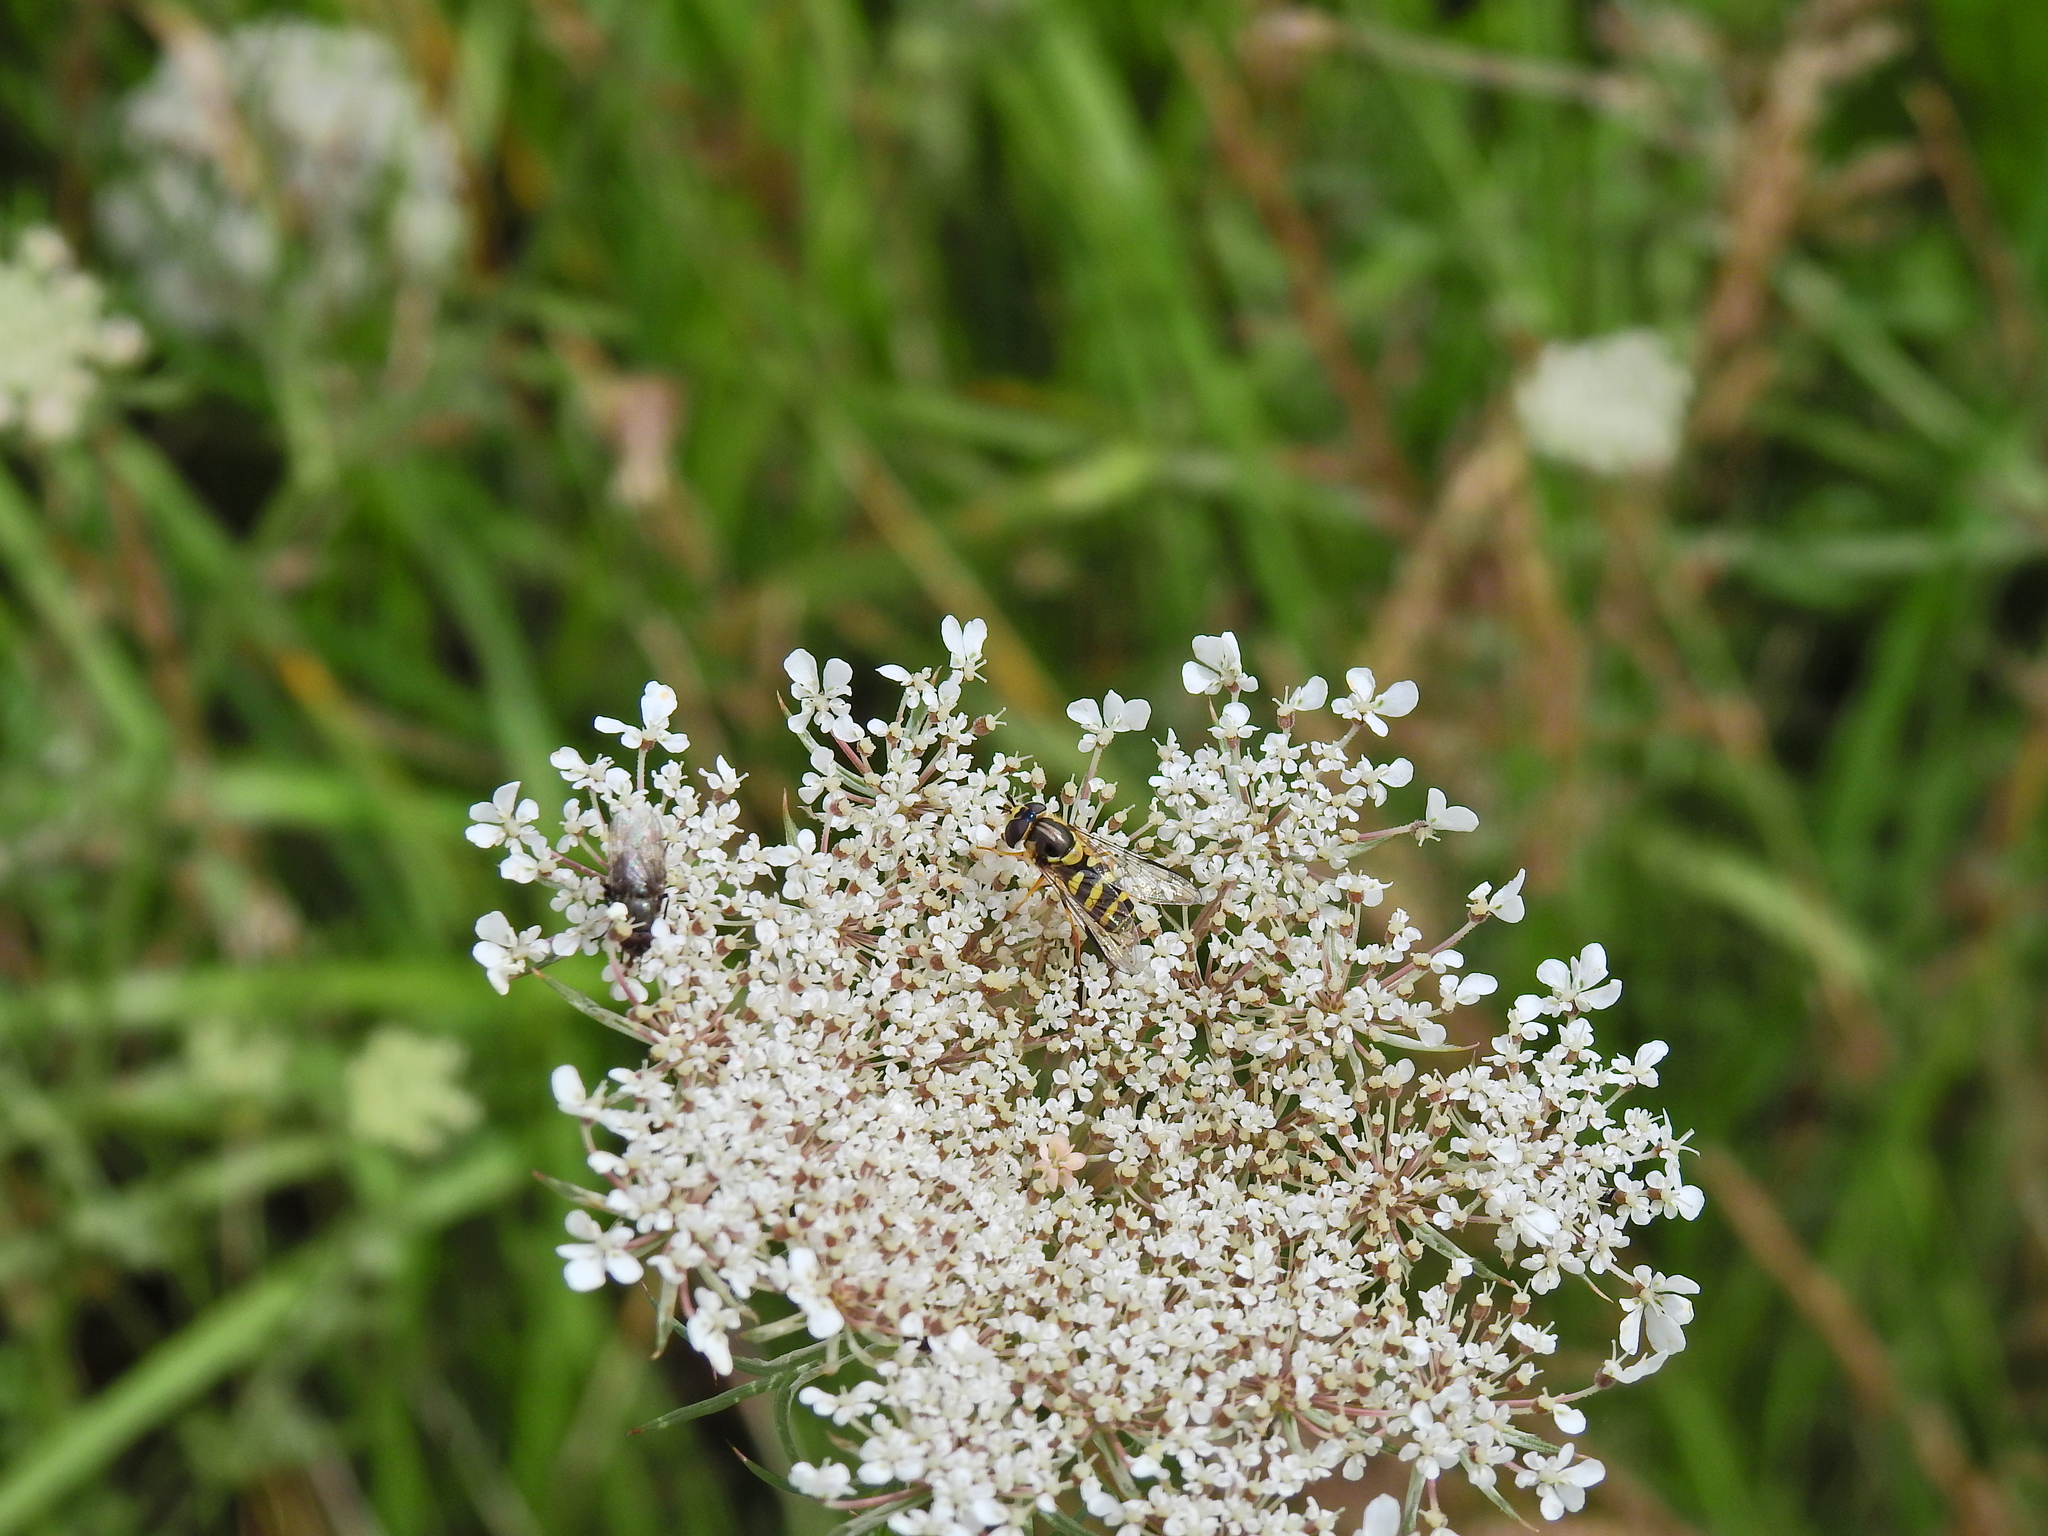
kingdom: Animalia
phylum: Arthropoda
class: Insecta
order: Diptera
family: Syrphidae
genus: Dasysyrphus
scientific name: Dasysyrphus albostriatus
